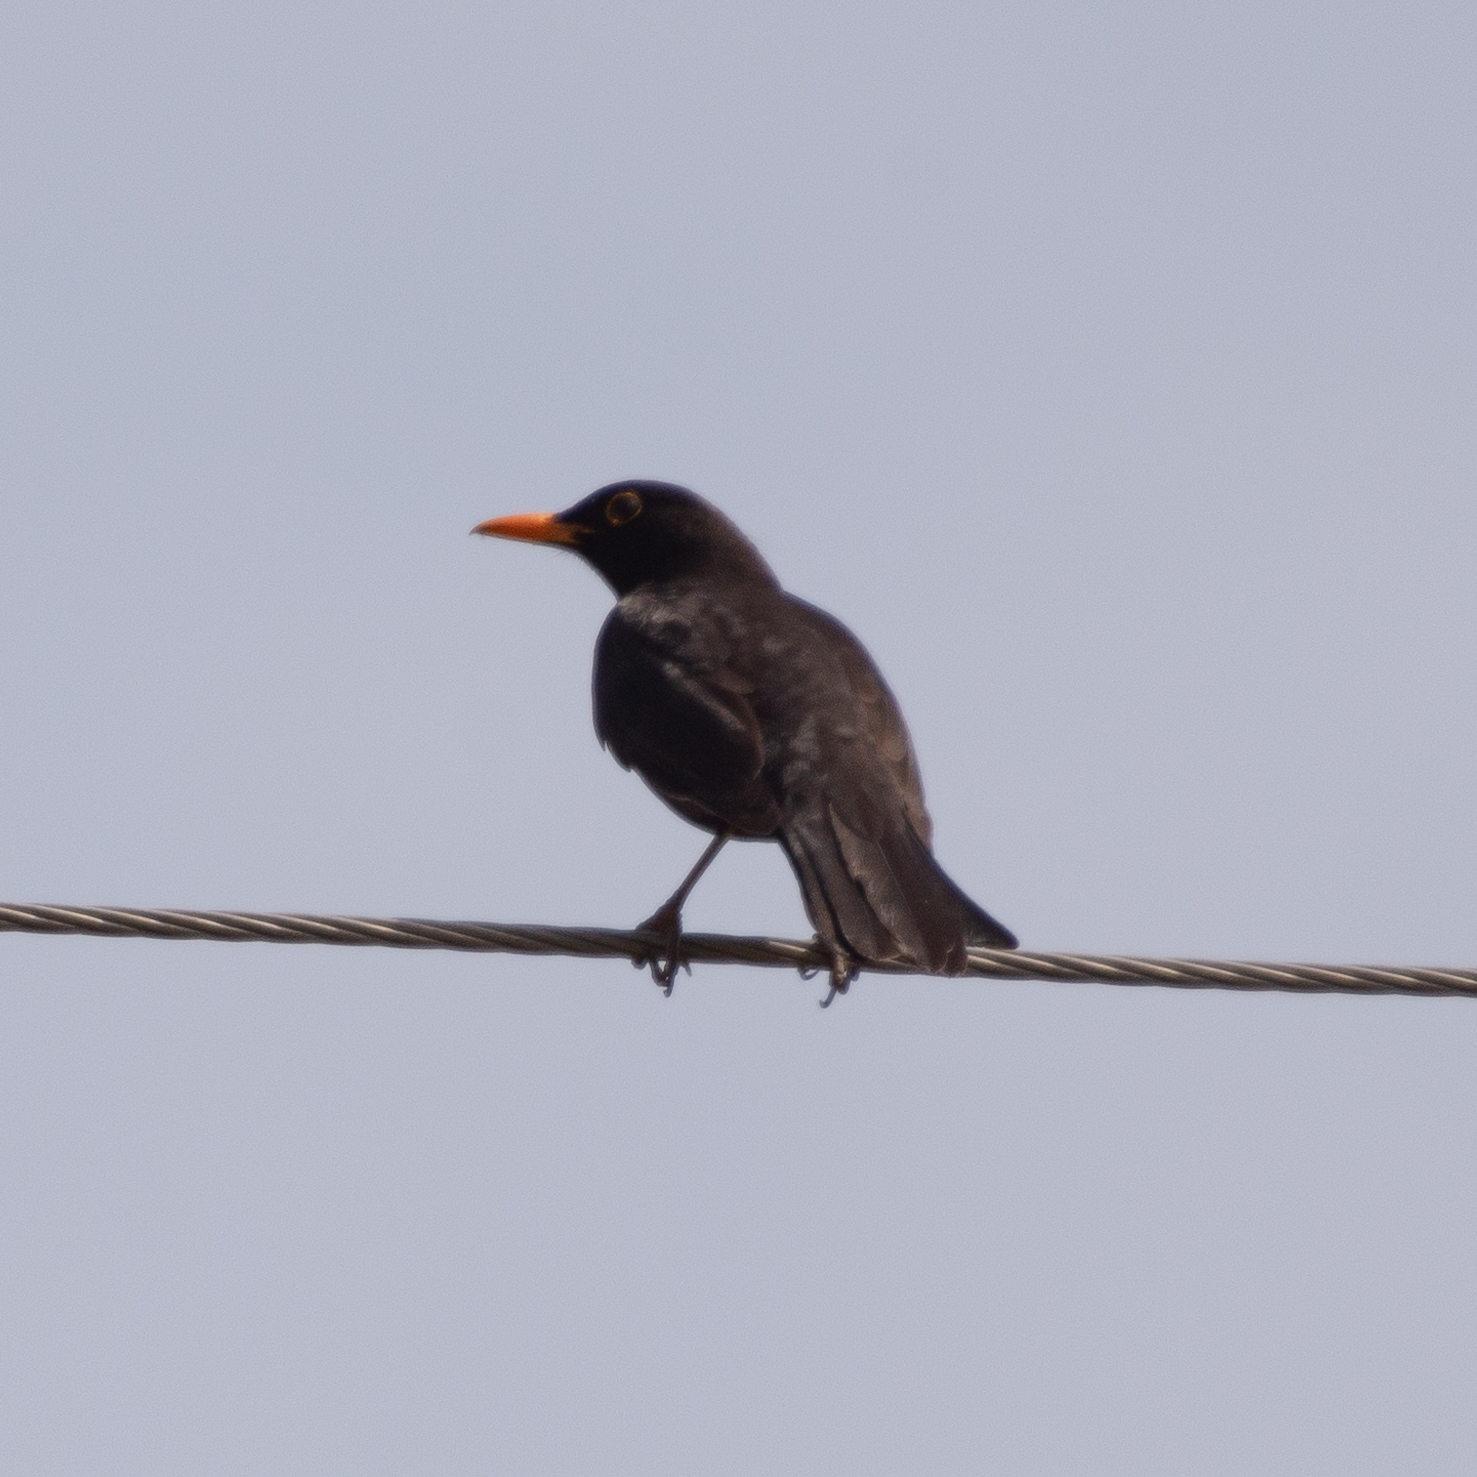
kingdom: Animalia
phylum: Chordata
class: Aves
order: Passeriformes
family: Turdidae
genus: Turdus
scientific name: Turdus merula
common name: Common blackbird
